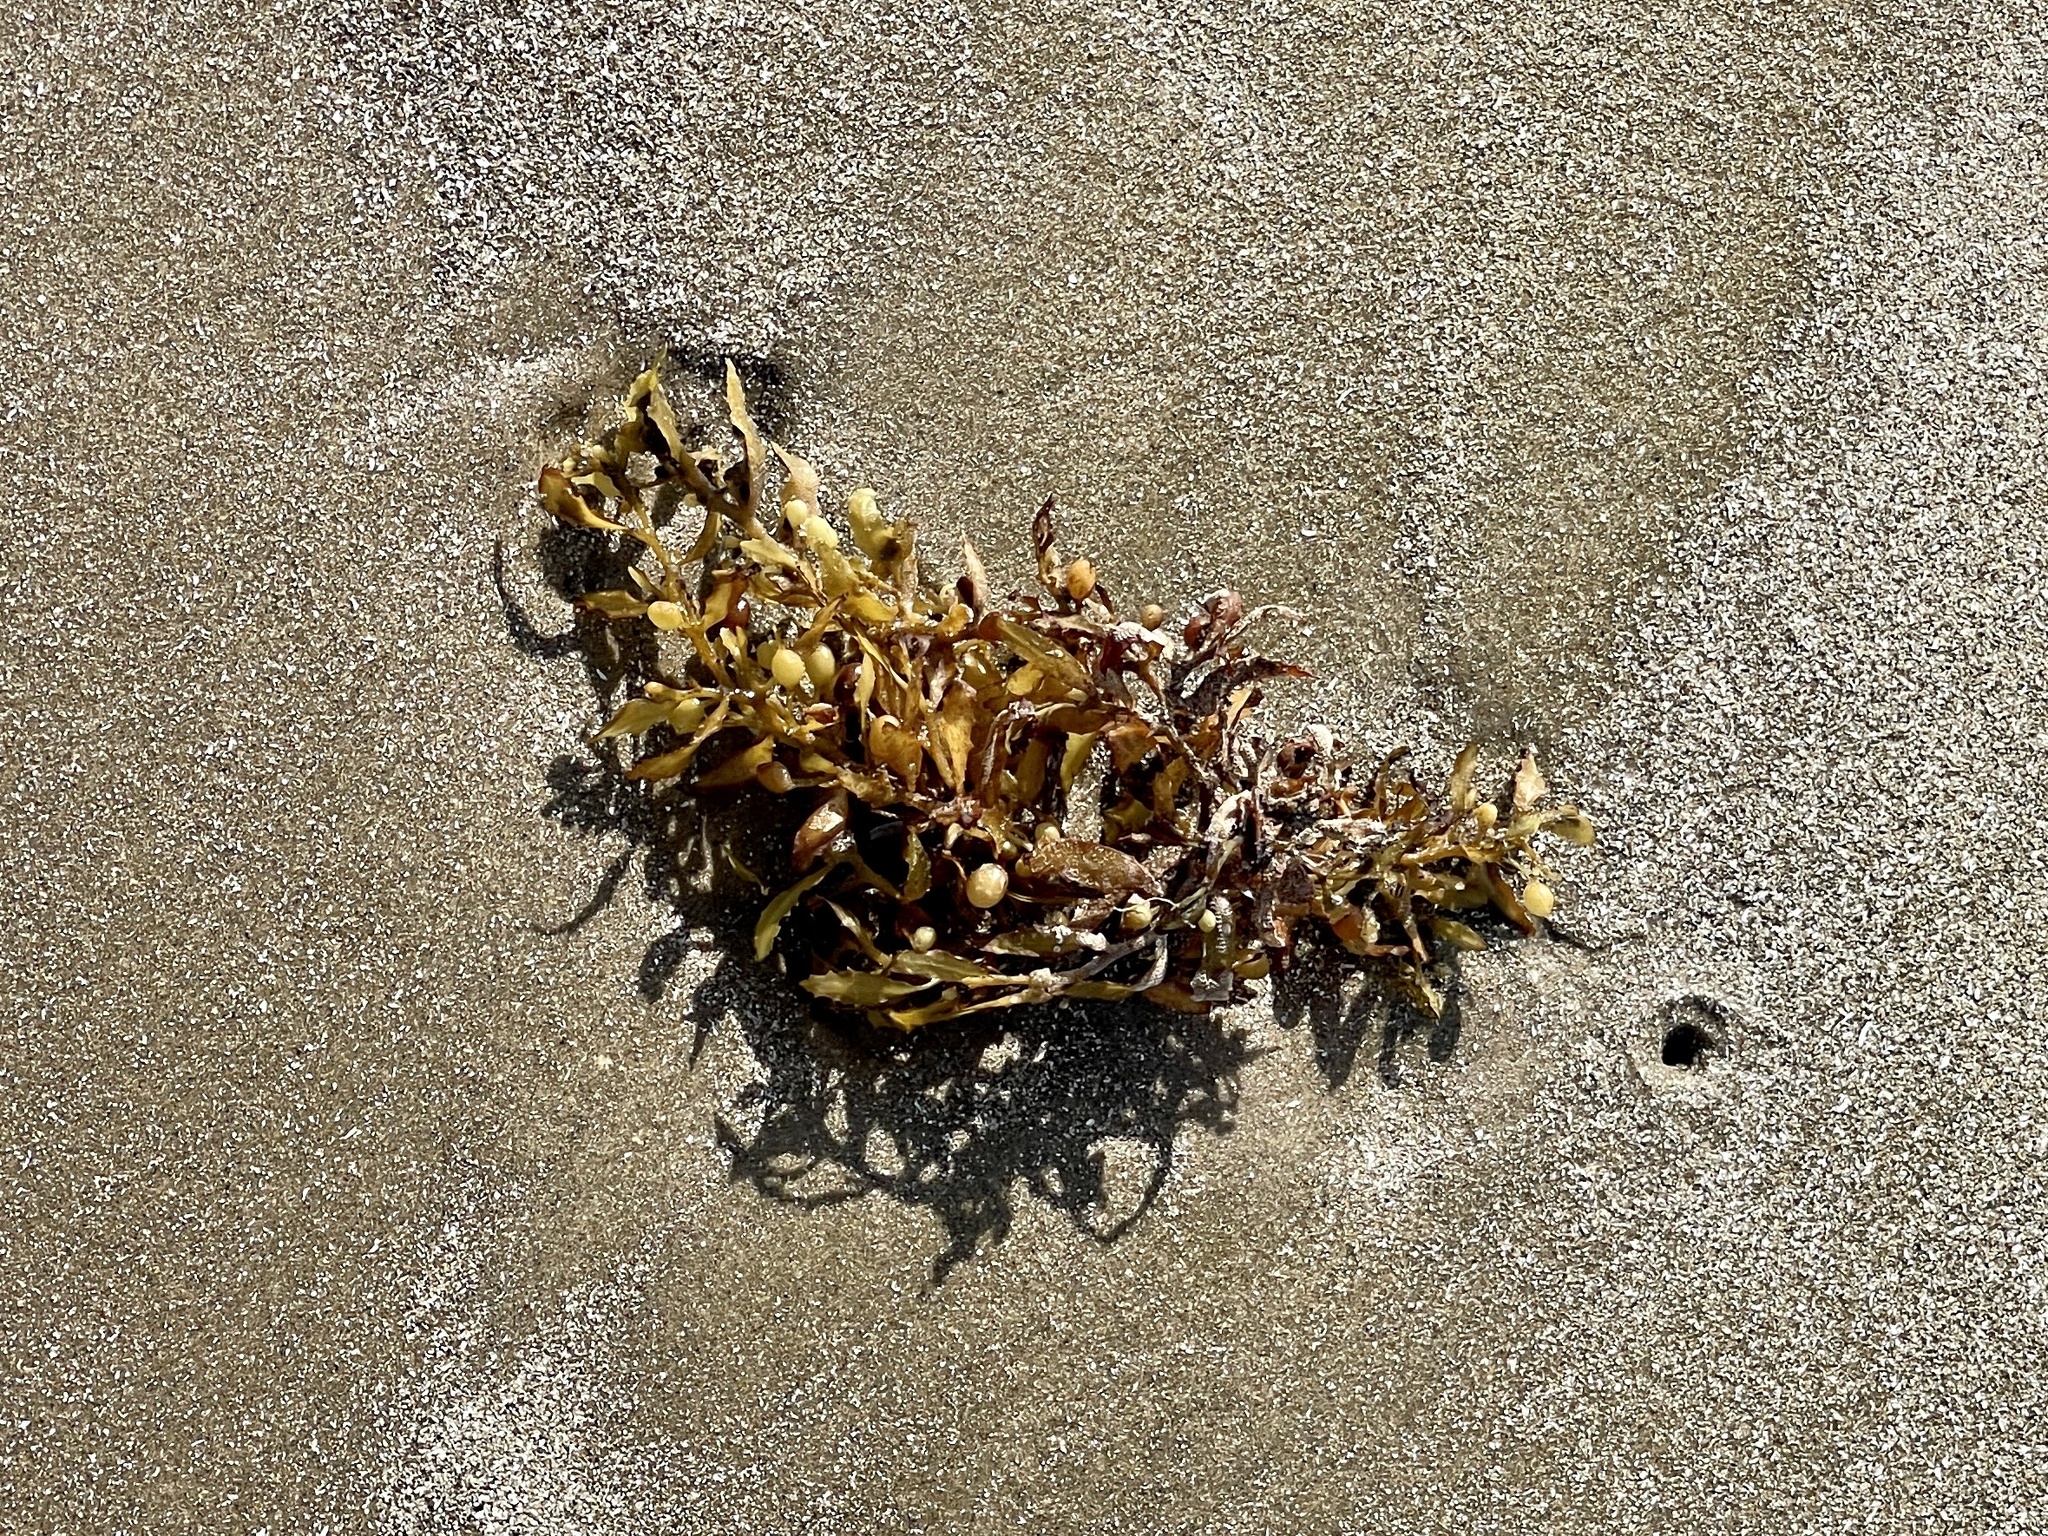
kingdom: Chromista
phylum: Ochrophyta
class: Phaeophyceae
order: Fucales
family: Sargassaceae
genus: Sargassum
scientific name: Sargassum fluitans
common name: Sargassum seaweed
